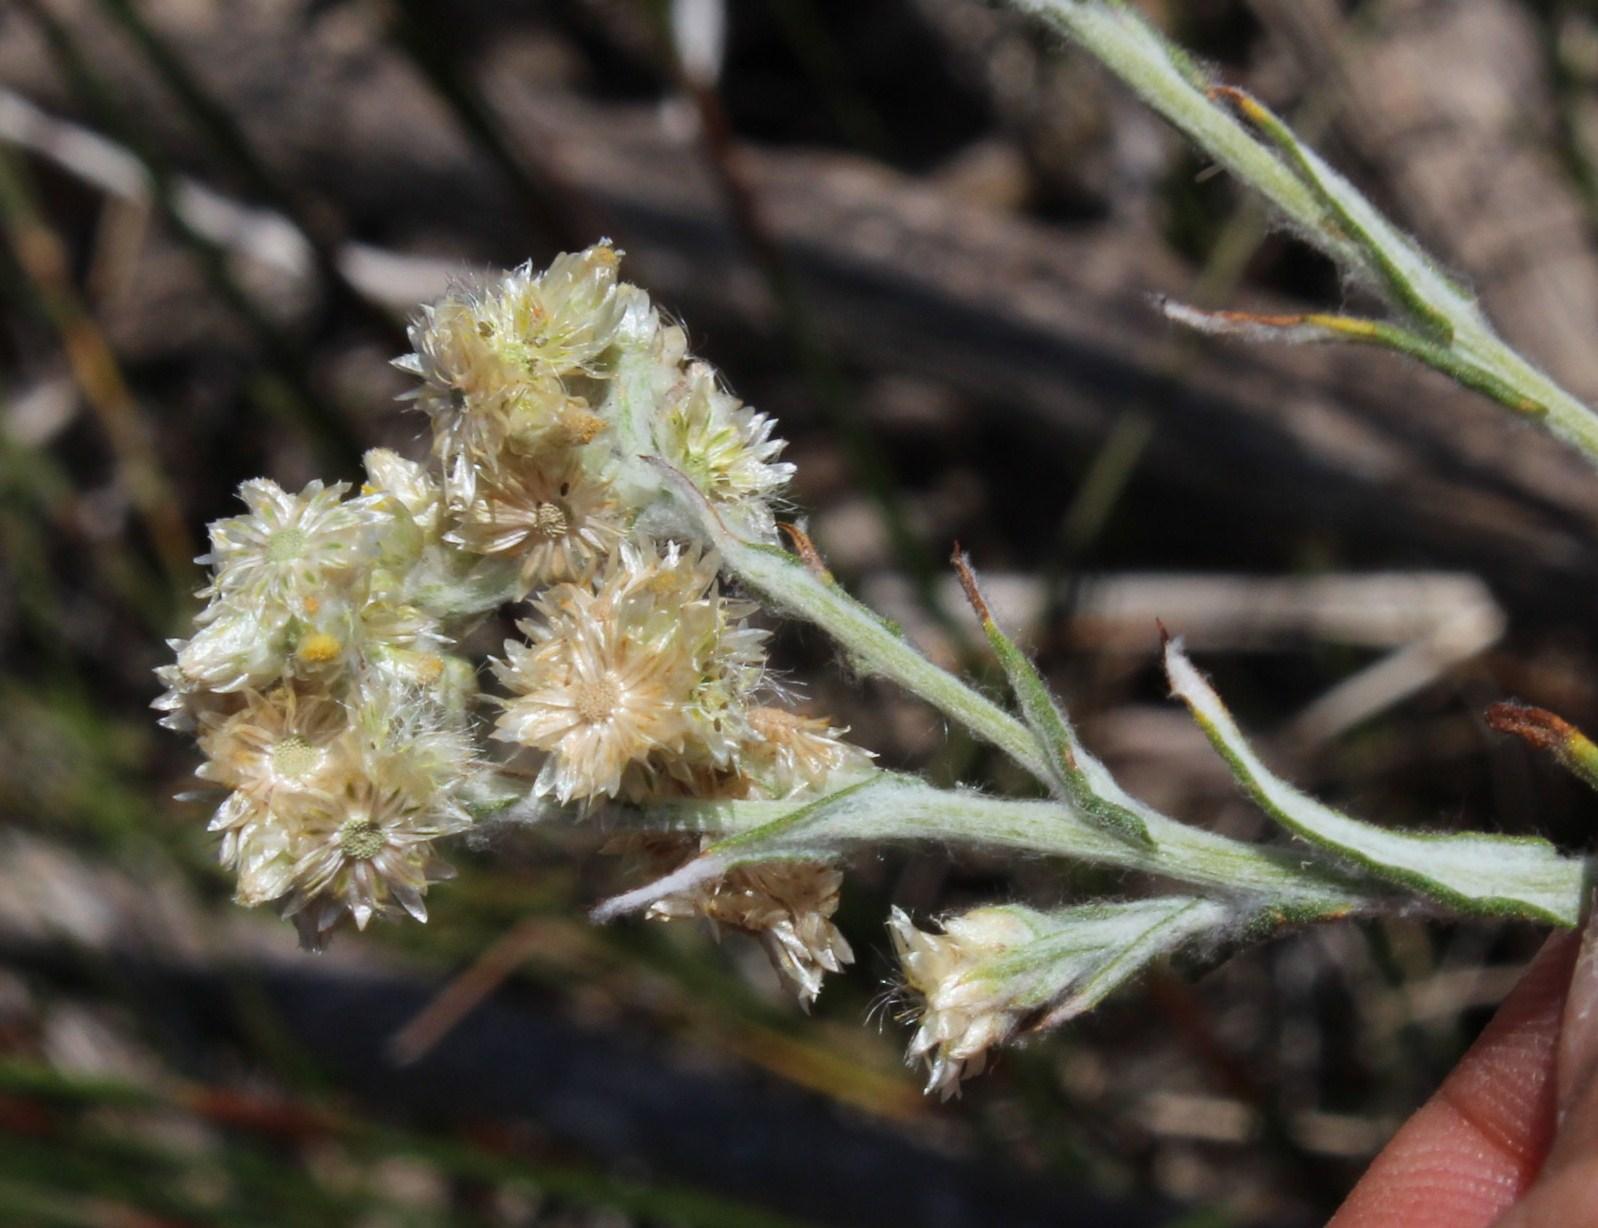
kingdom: Plantae
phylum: Tracheophyta
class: Magnoliopsida
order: Asterales
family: Asteraceae
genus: Helichrysum
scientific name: Helichrysum luteoalbum
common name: Daisy
